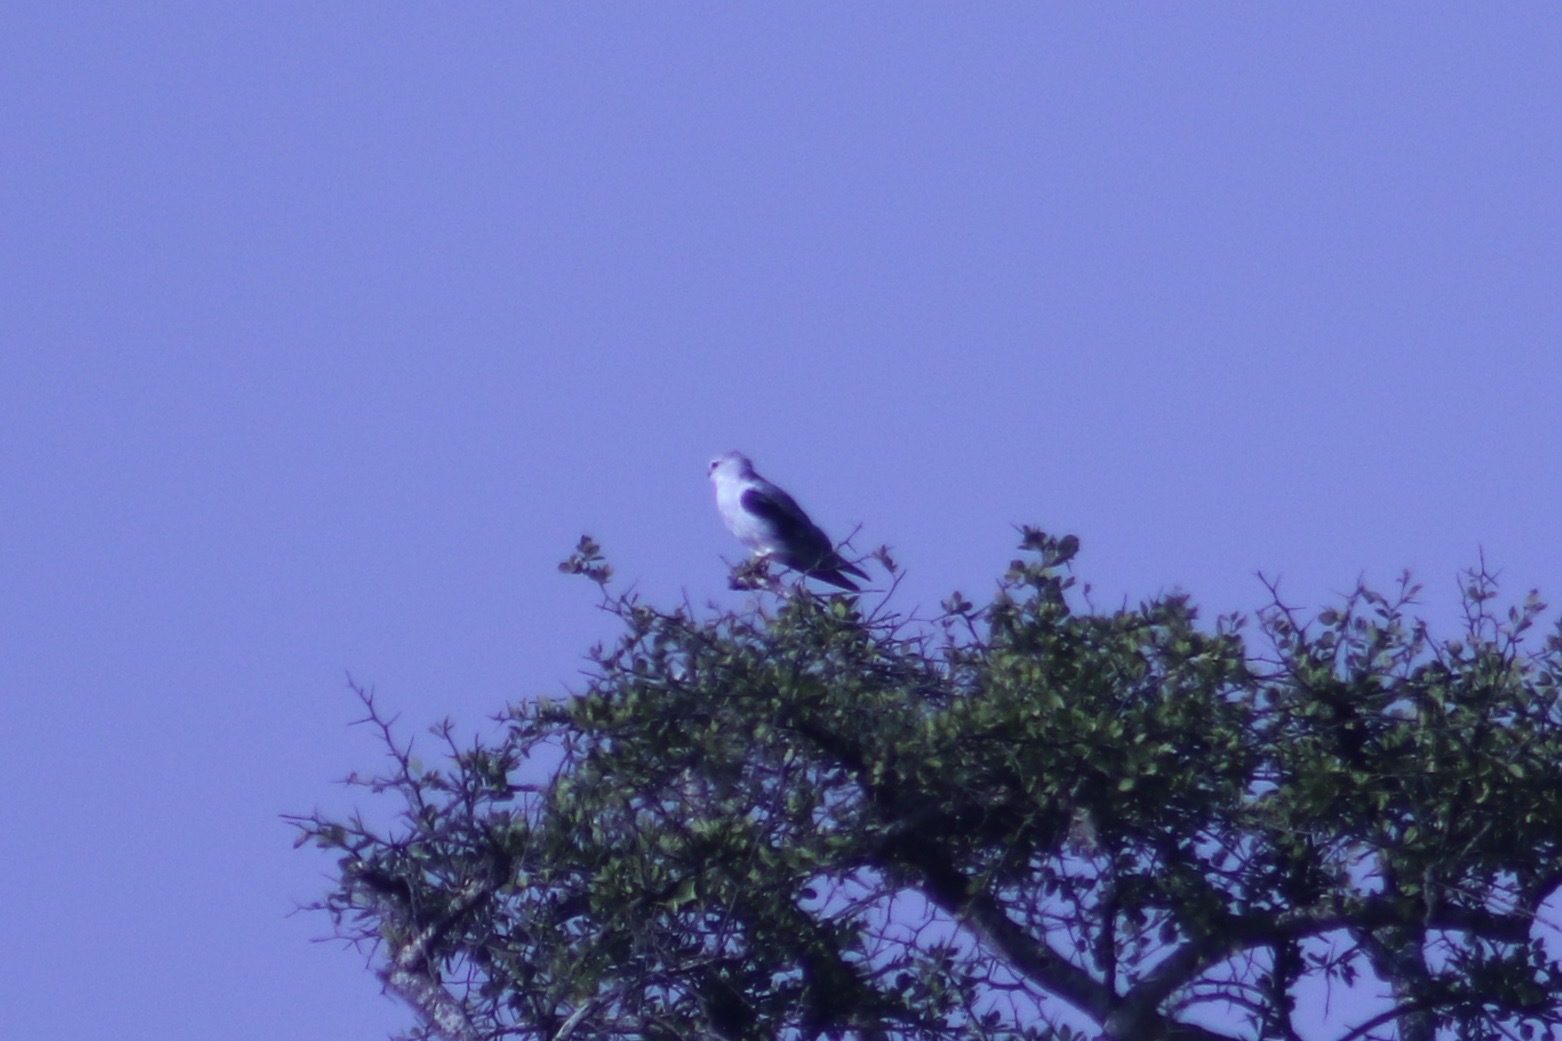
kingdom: Animalia
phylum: Chordata
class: Aves
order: Accipitriformes
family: Accipitridae
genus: Elanus
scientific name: Elanus caeruleus
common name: Black-winged kite
